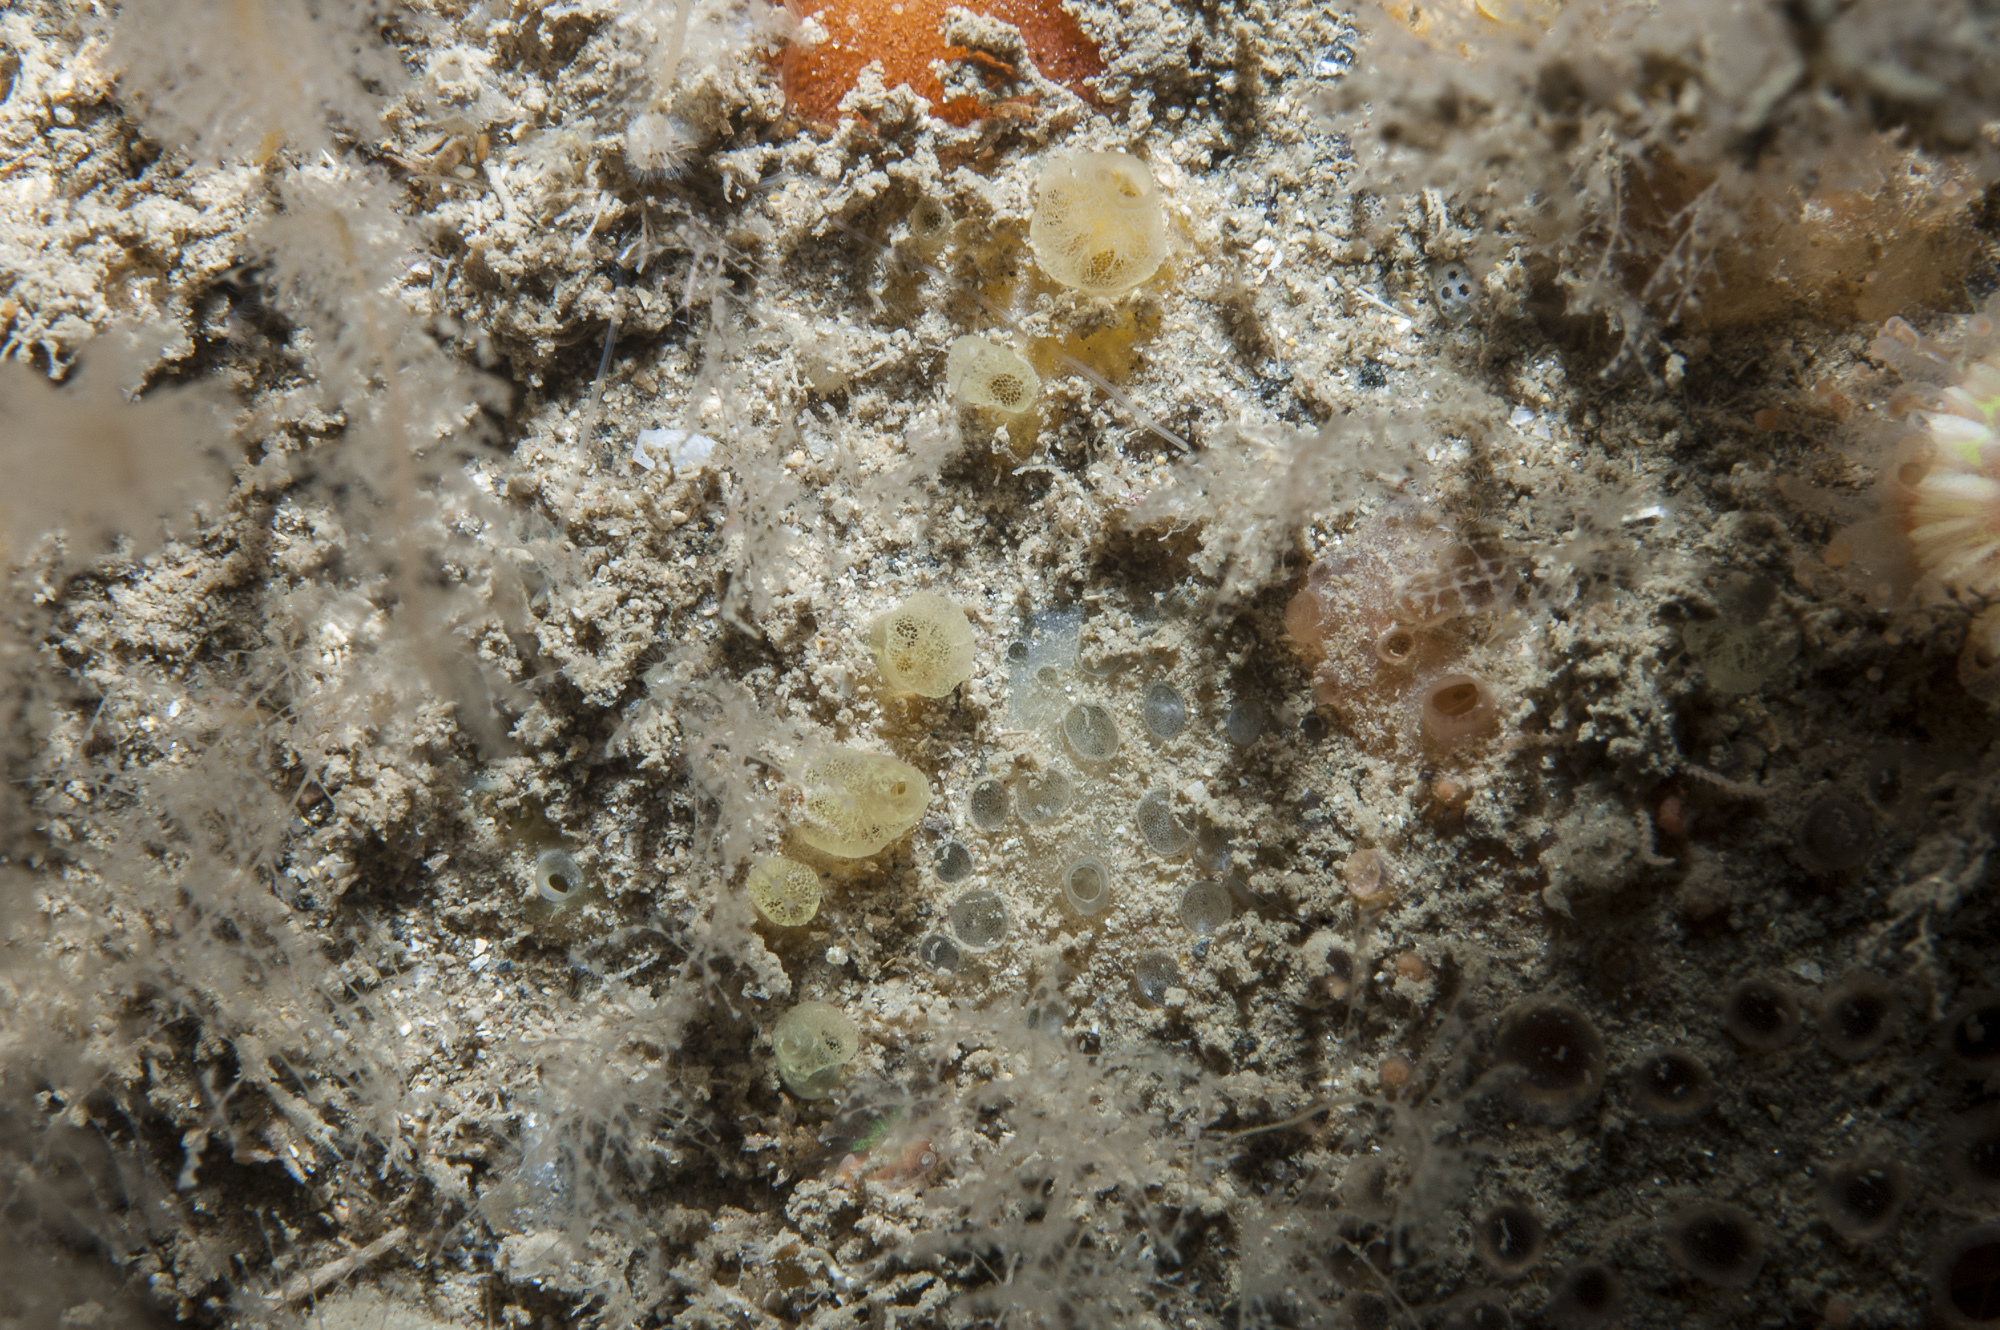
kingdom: Animalia
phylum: Porifera
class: Demospongiae
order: Poecilosclerida
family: Hymedesmiidae
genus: Hymedesmia
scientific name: Hymedesmia rathlinia
